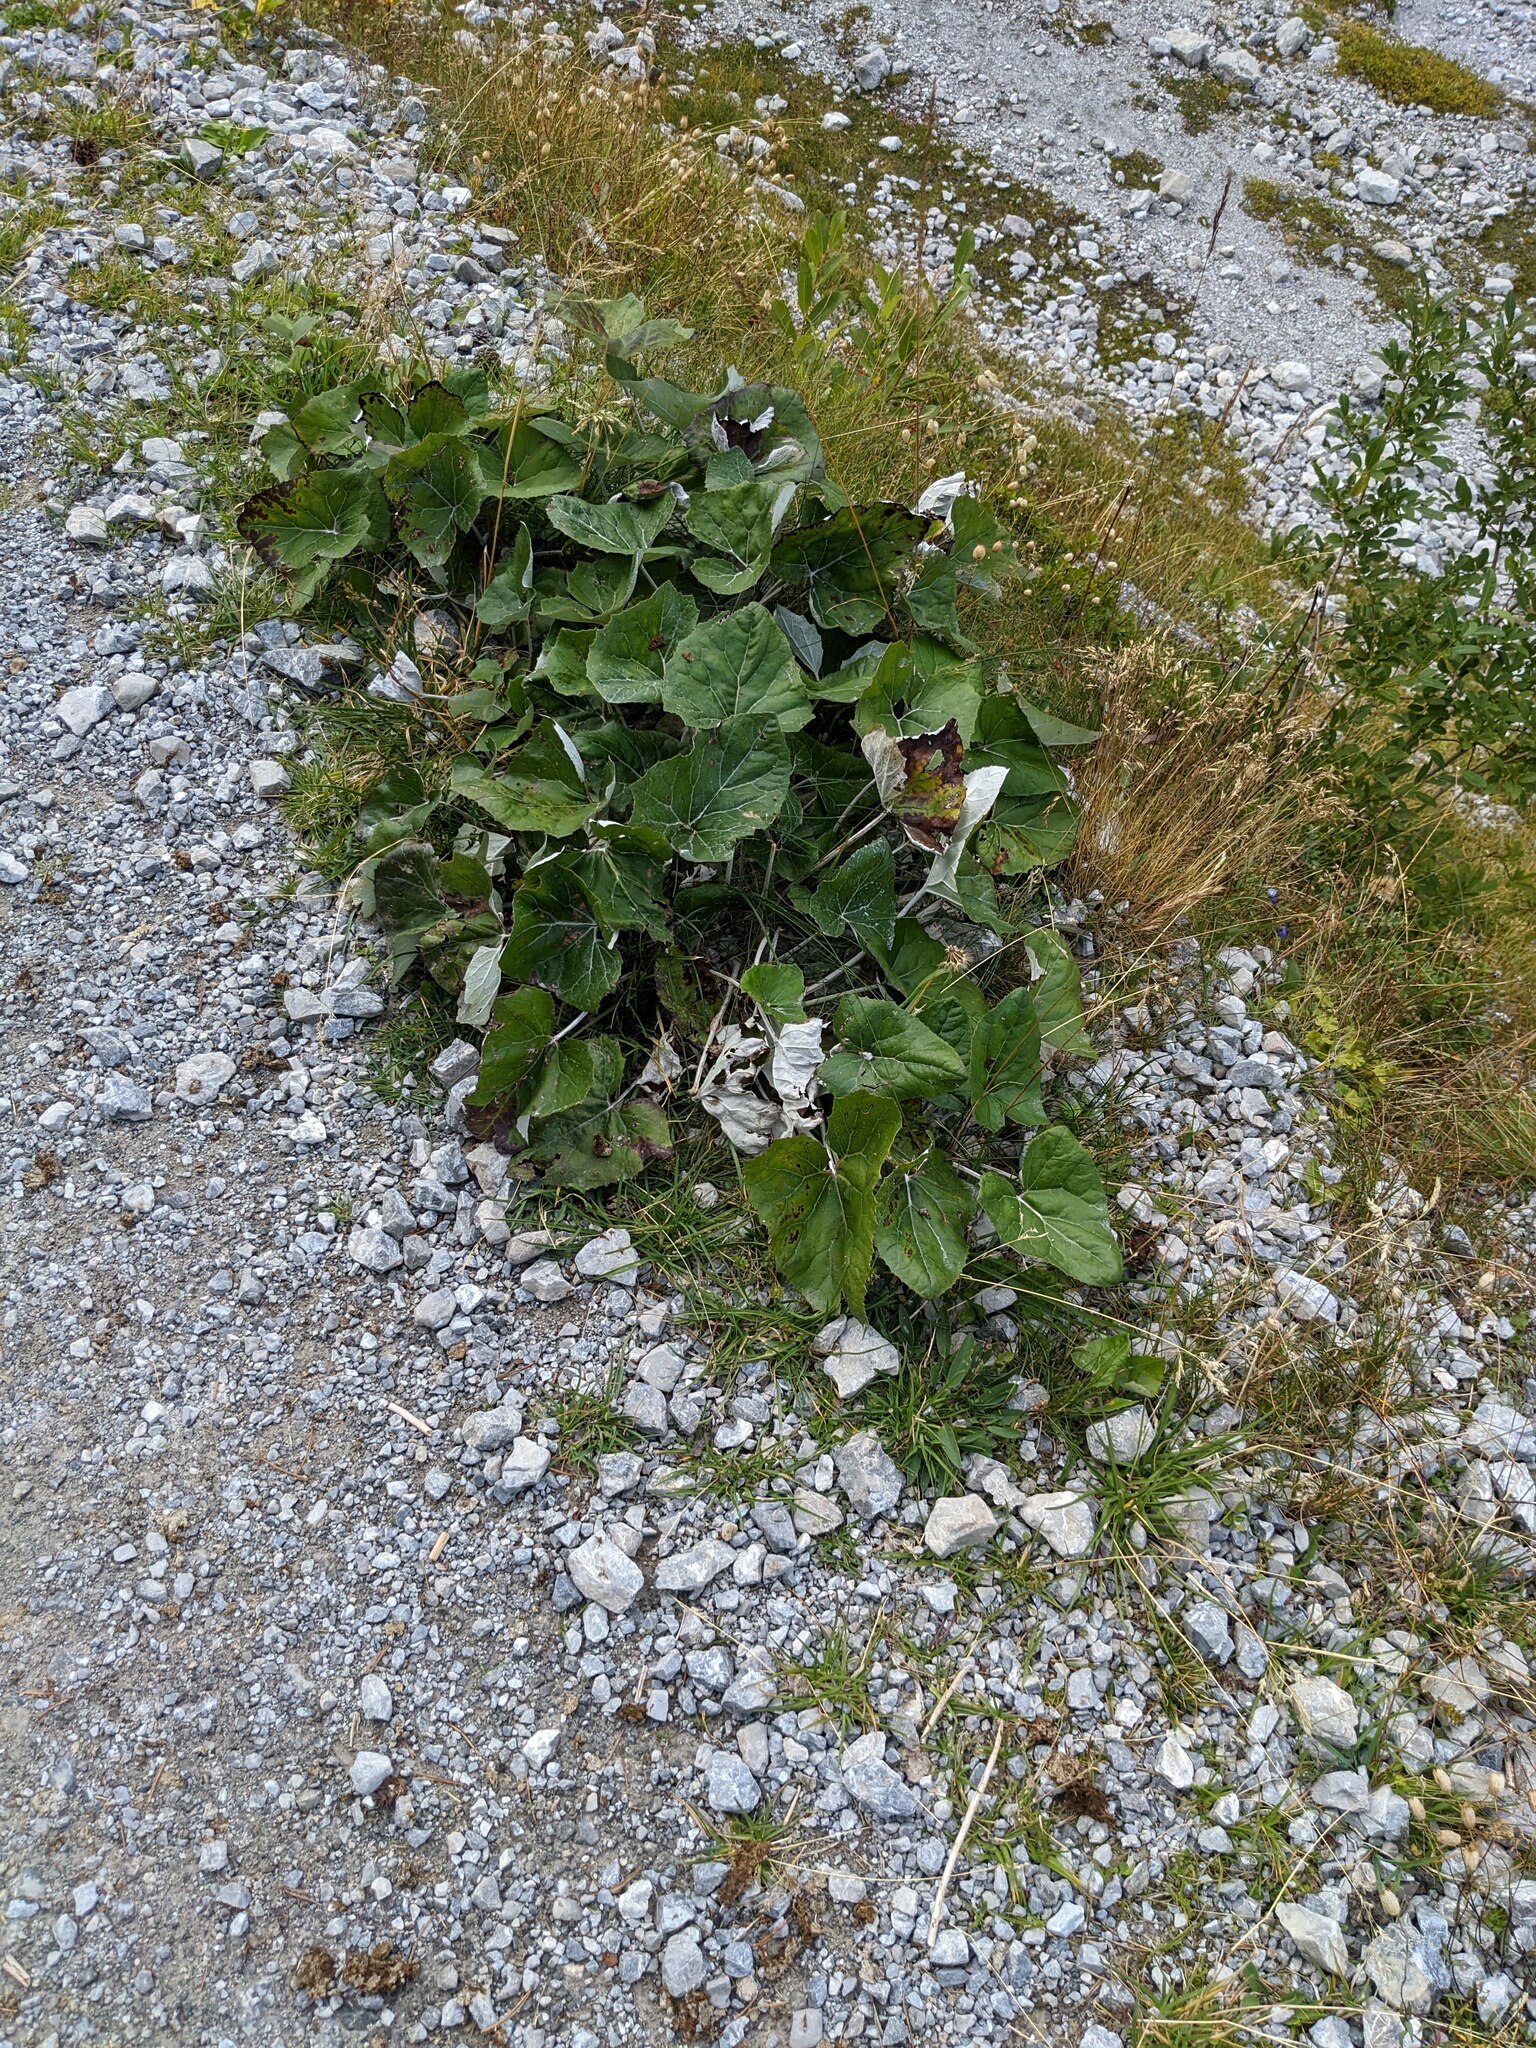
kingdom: Plantae
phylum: Tracheophyta
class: Magnoliopsida
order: Asterales
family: Asteraceae
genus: Petasites
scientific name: Petasites paradoxus
